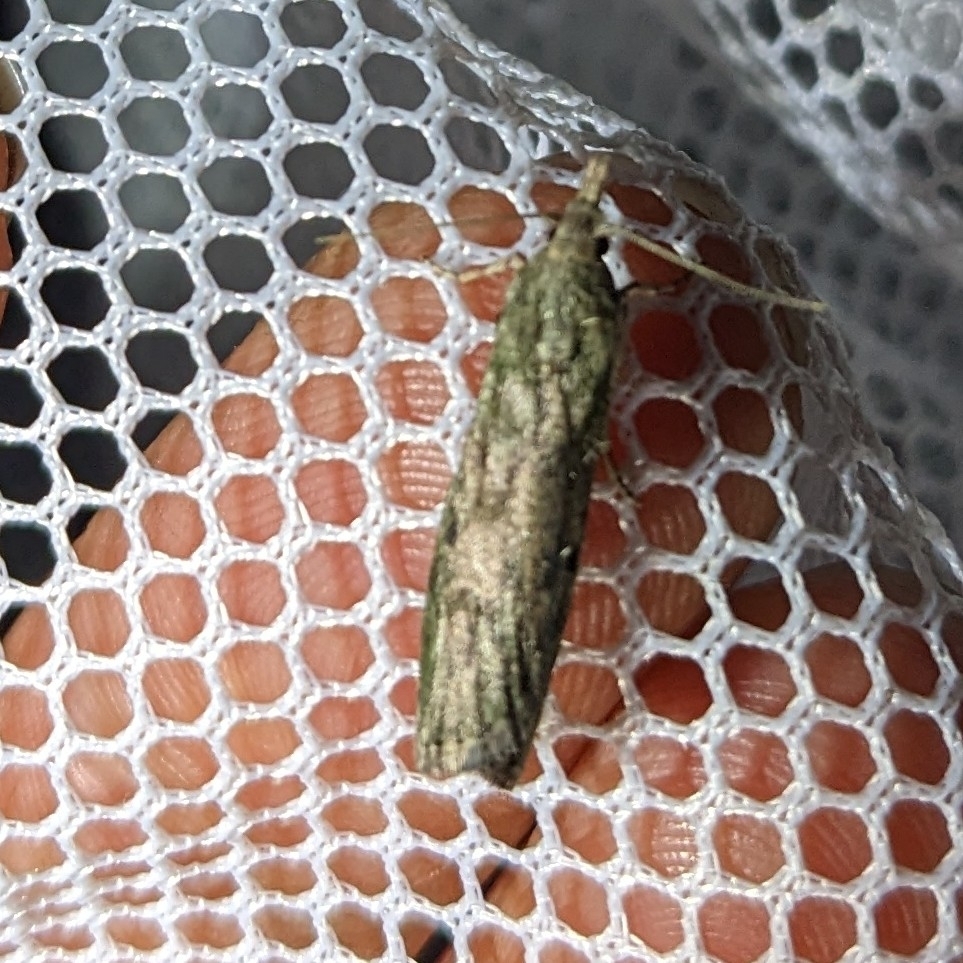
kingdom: Animalia
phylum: Arthropoda
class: Insecta
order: Lepidoptera
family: Pyralidae
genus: Aphomia
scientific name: Aphomia sociella
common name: Bee moth
